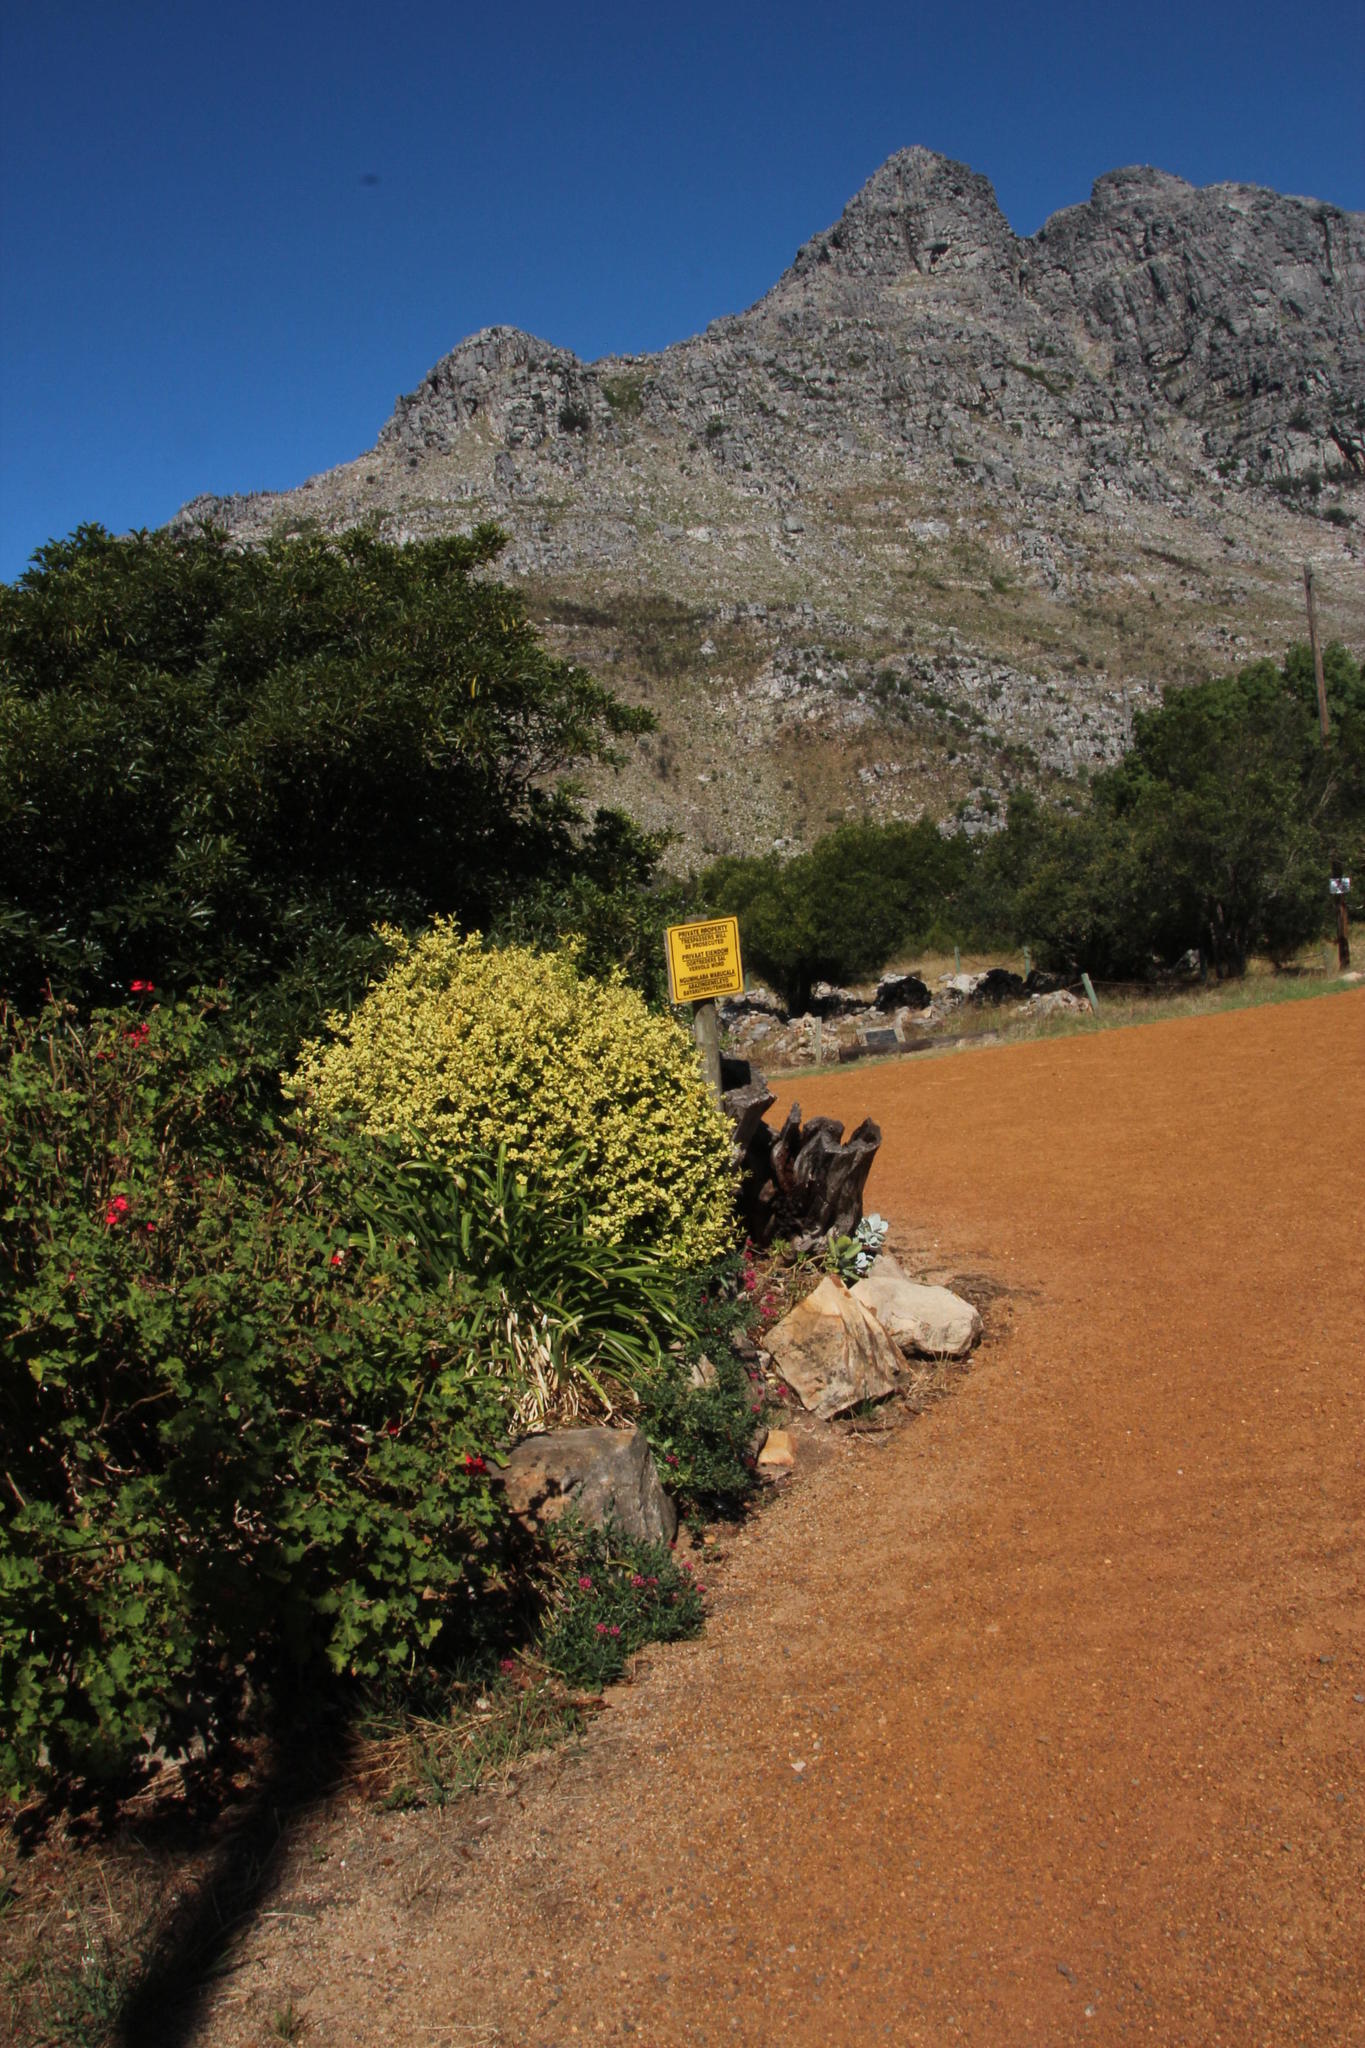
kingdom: Plantae
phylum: Tracheophyta
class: Magnoliopsida
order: Dipsacales
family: Caprifoliaceae
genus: Centranthus
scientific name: Centranthus ruber
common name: Red valerian
